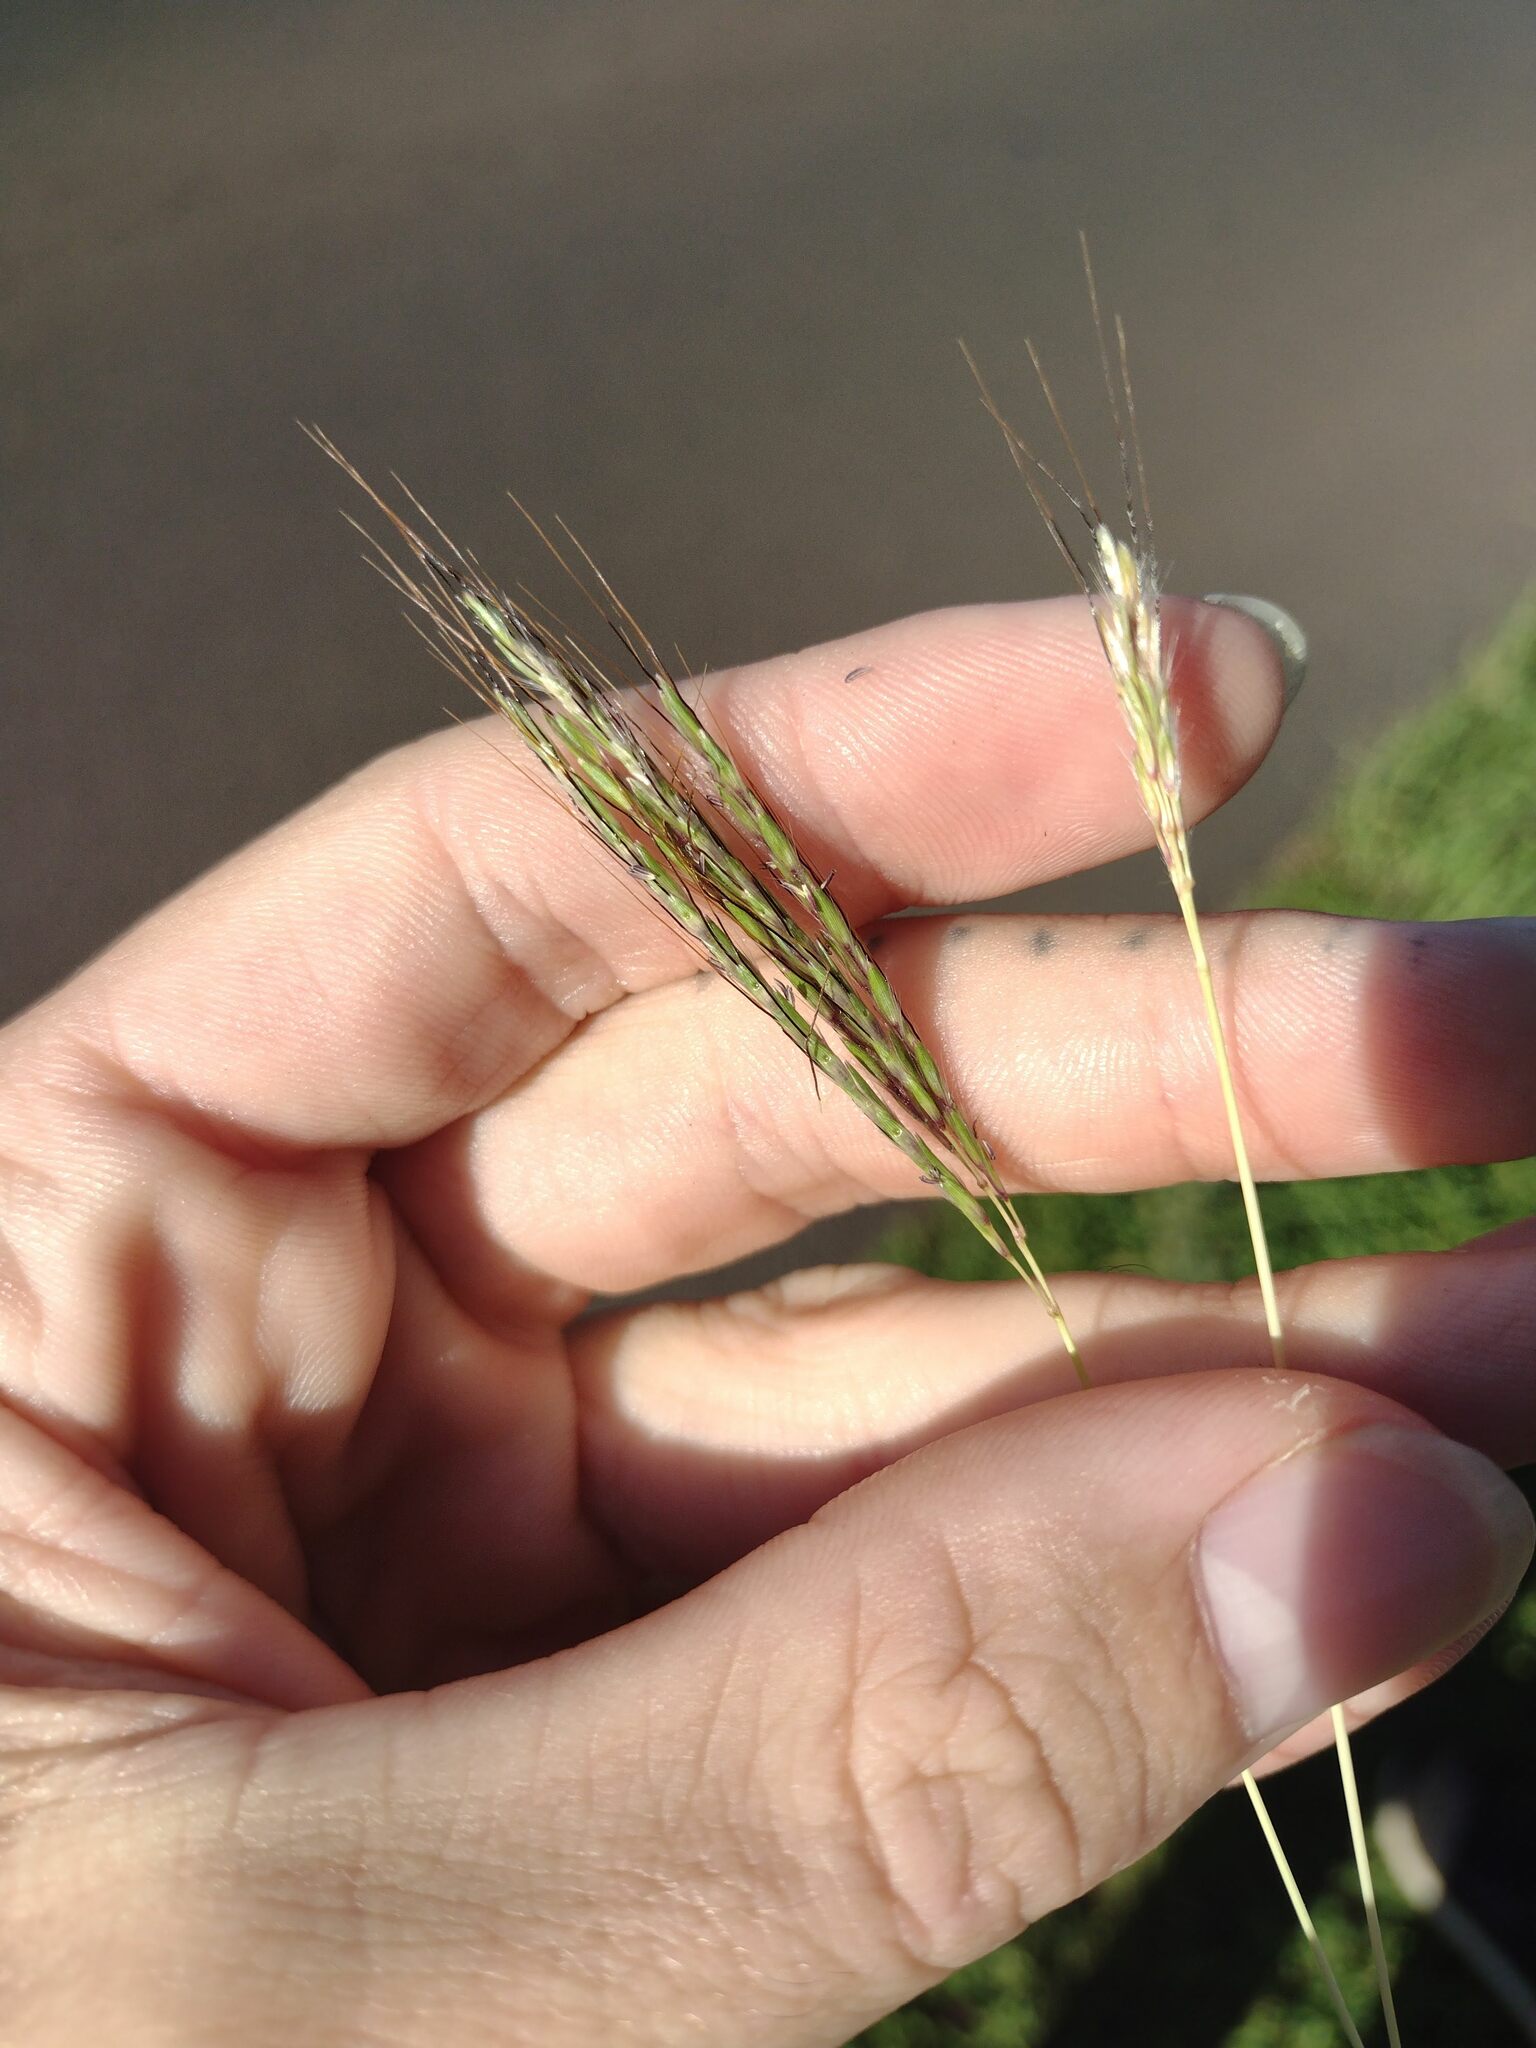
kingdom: Plantae
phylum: Tracheophyta
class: Liliopsida
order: Poales
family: Poaceae
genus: Bothriochloa
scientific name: Bothriochloa pertusa
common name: Pitted beardgrass
